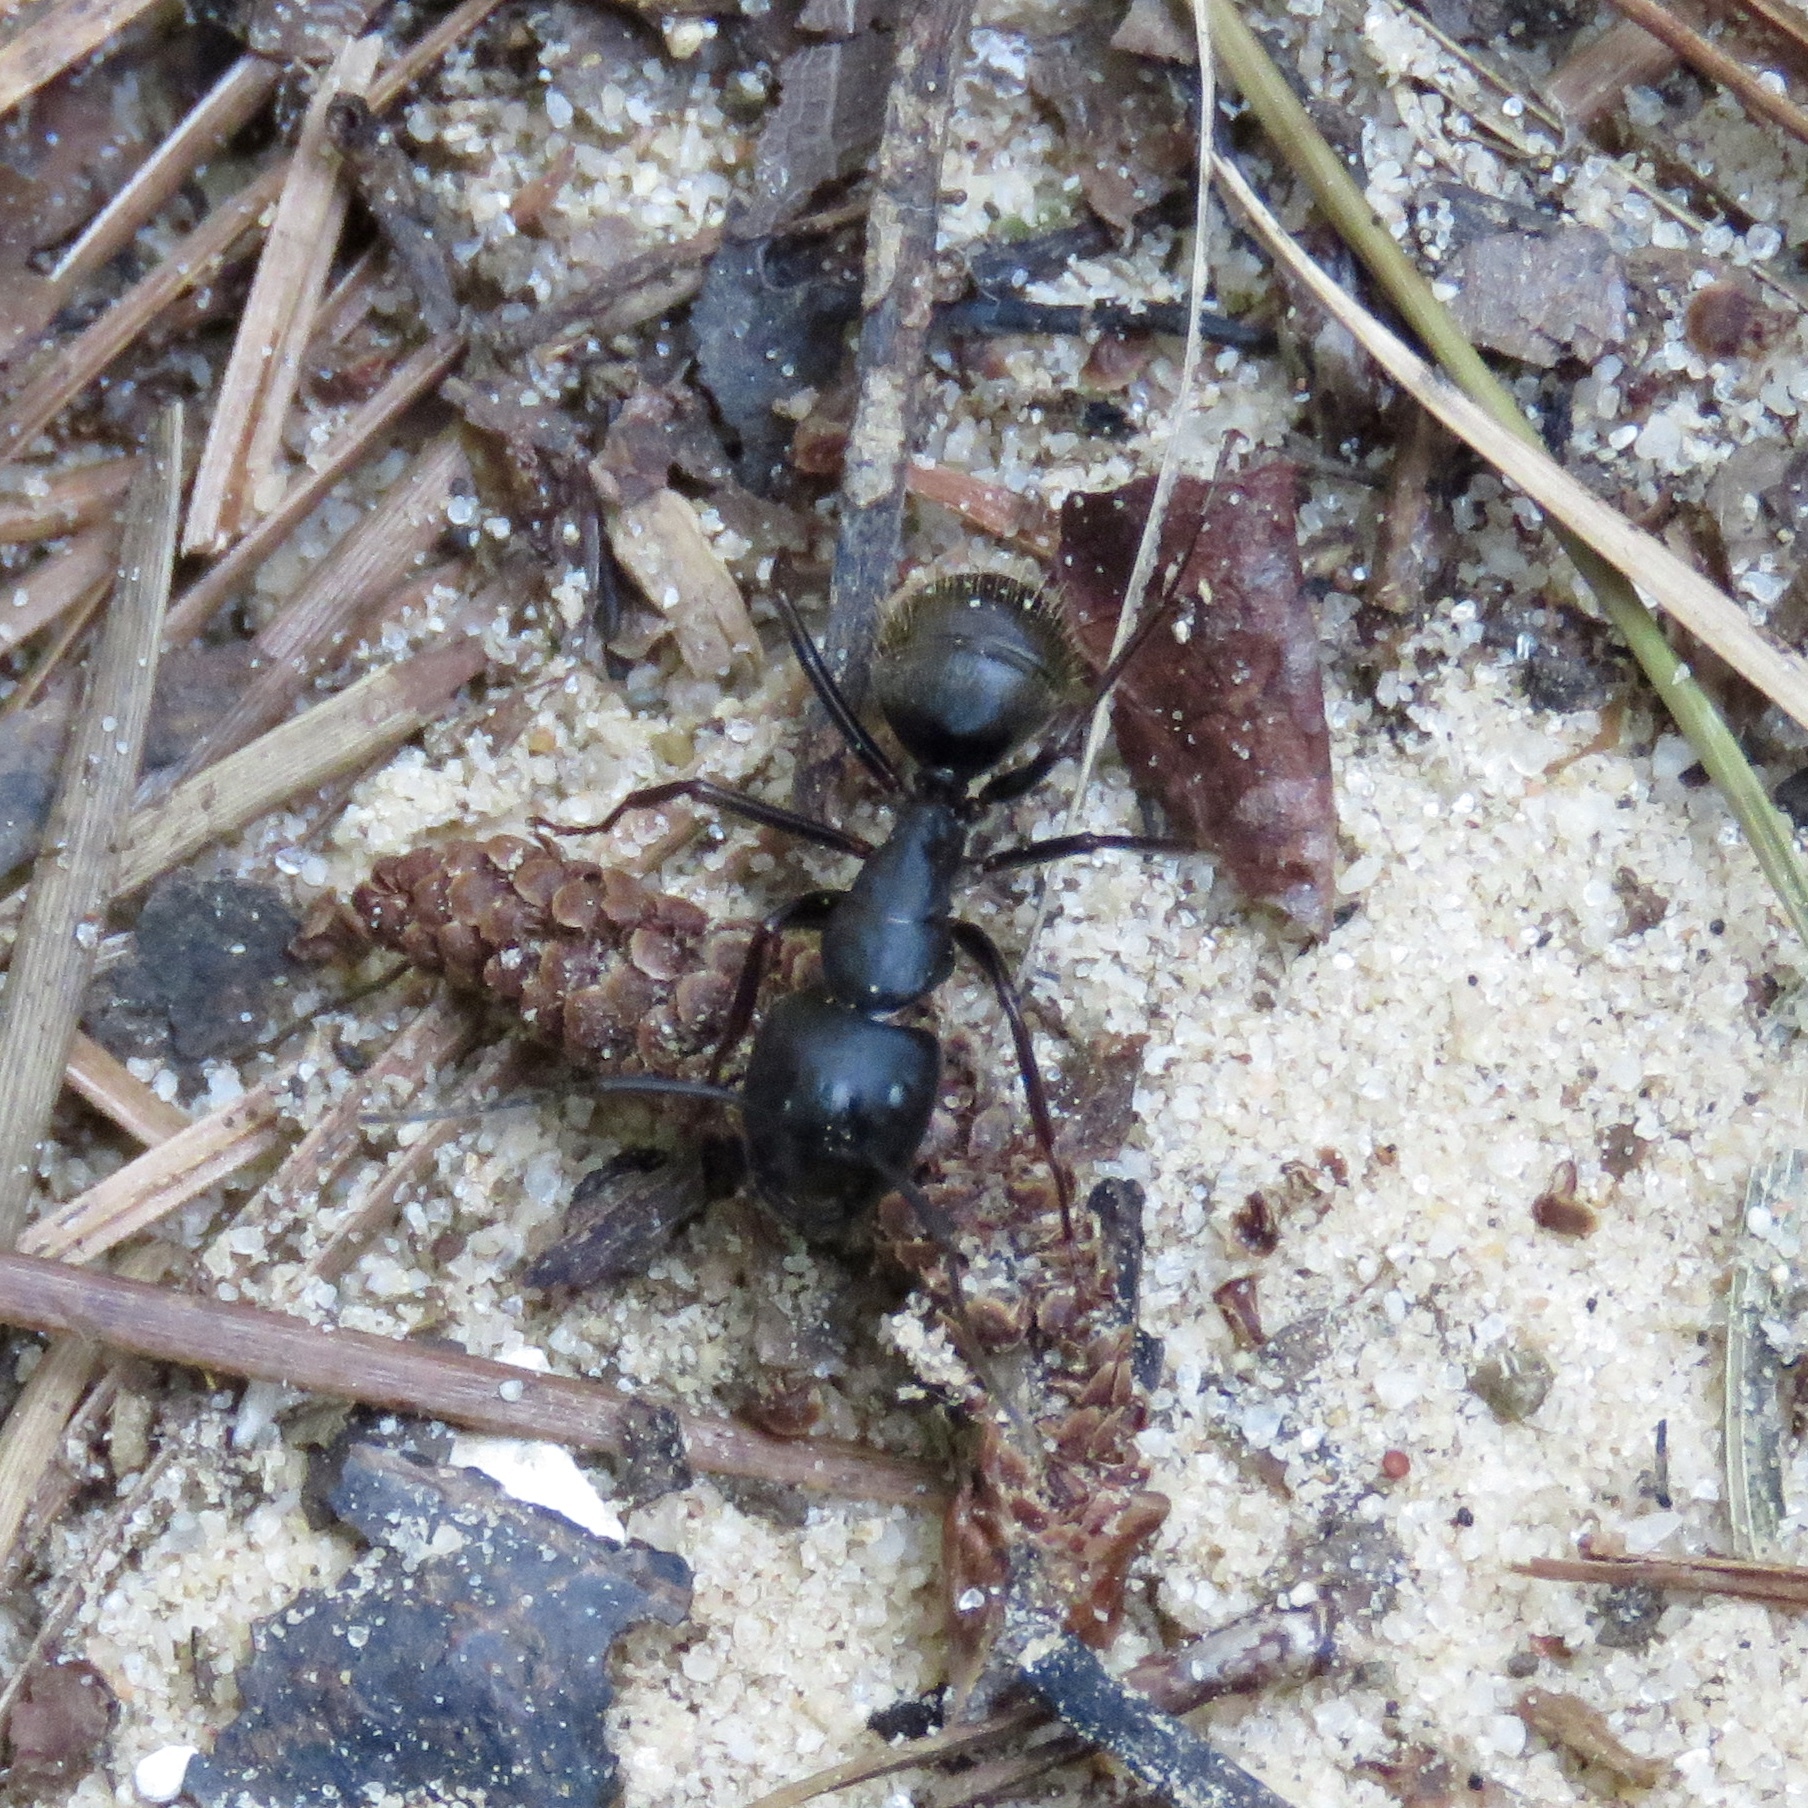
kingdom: Animalia
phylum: Arthropoda
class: Insecta
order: Hymenoptera
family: Formicidae
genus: Camponotus
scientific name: Camponotus pennsylvanicus
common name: Black carpenter ant
